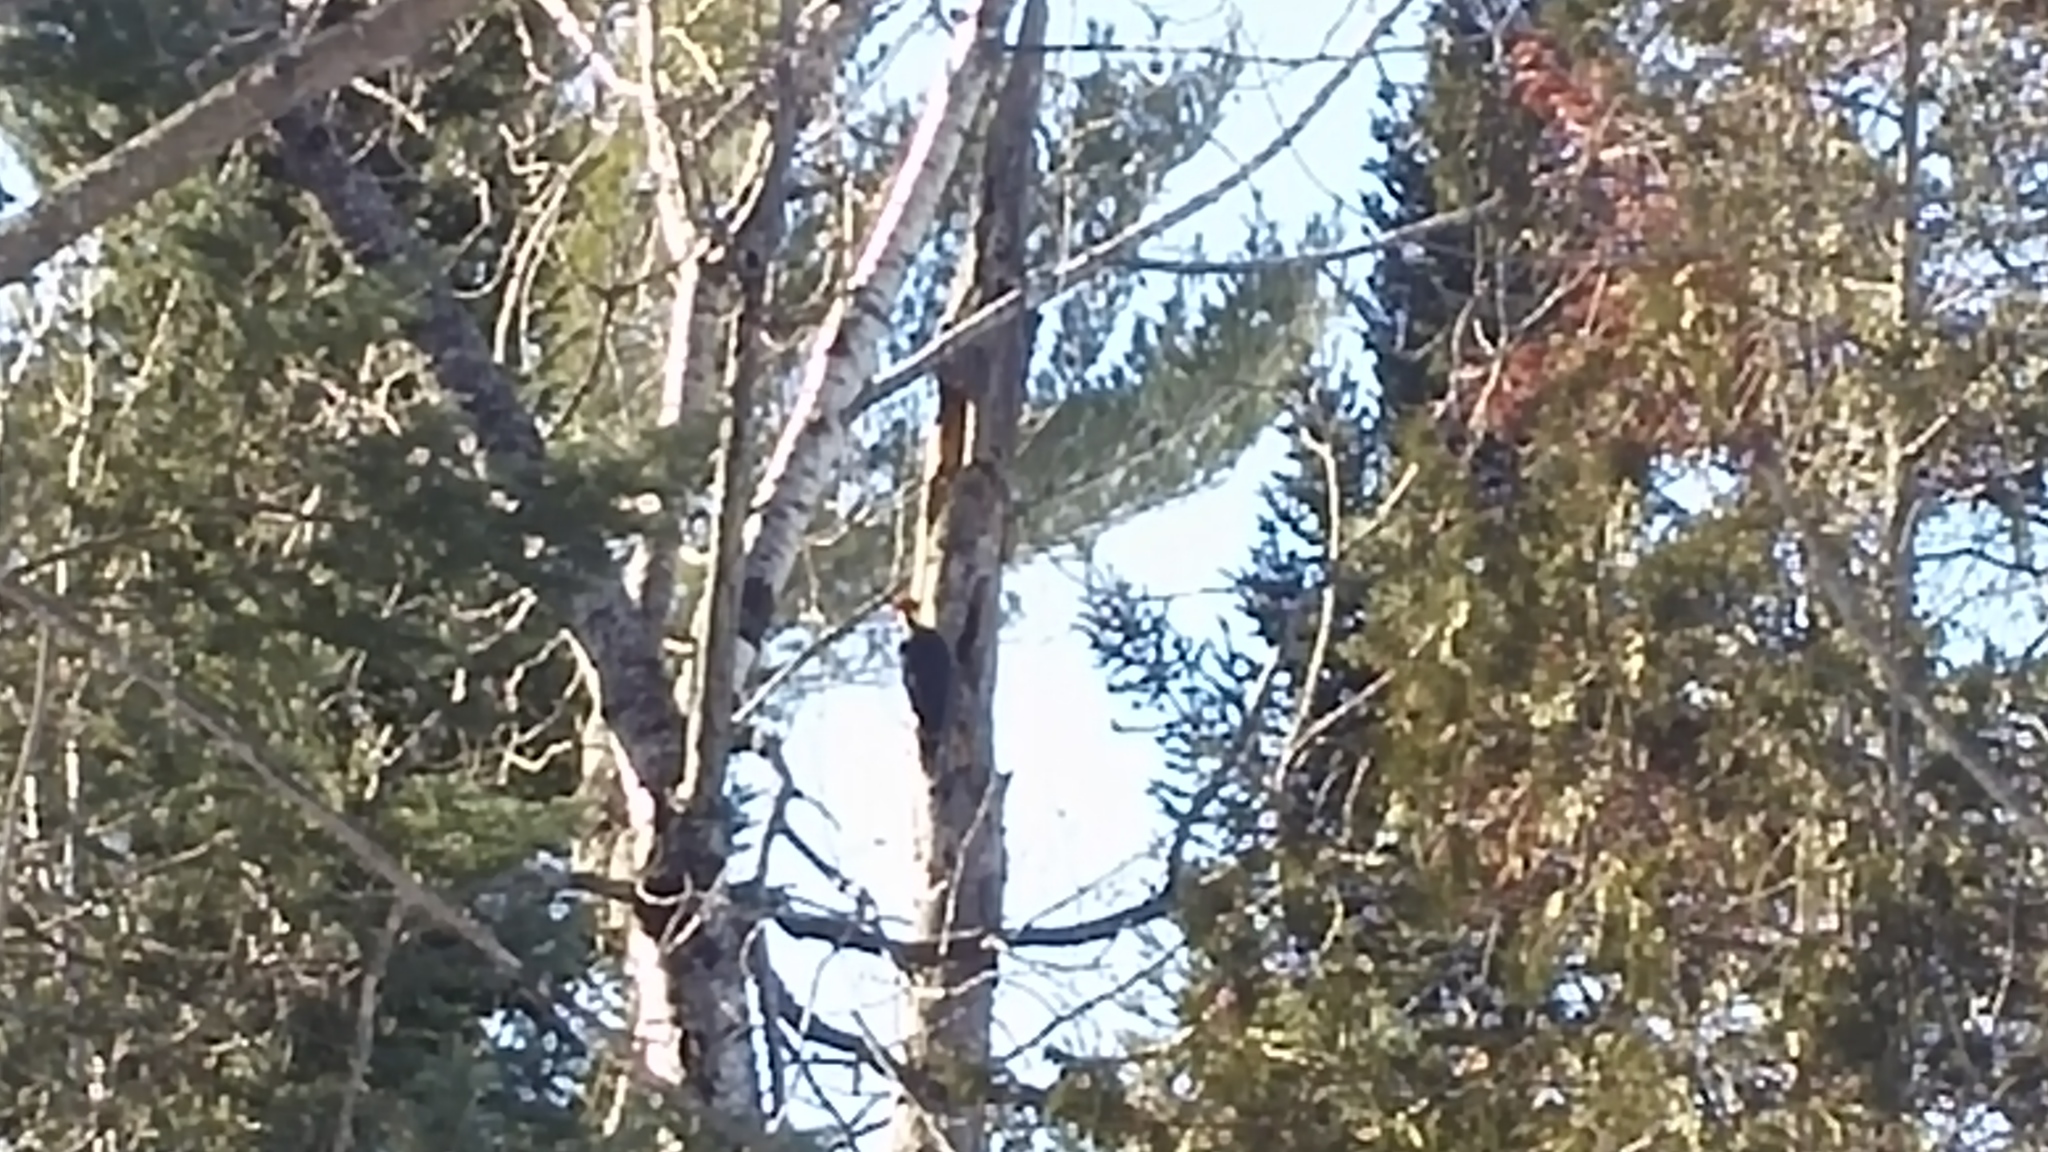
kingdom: Animalia
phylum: Chordata
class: Aves
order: Piciformes
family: Picidae
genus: Dryocopus
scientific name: Dryocopus pileatus
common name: Pileated woodpecker
